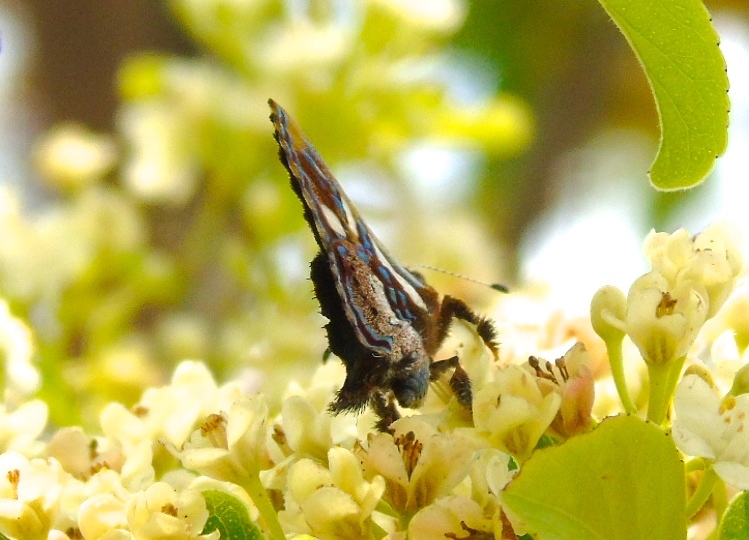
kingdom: Animalia
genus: Anteros
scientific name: Anteros carausius
